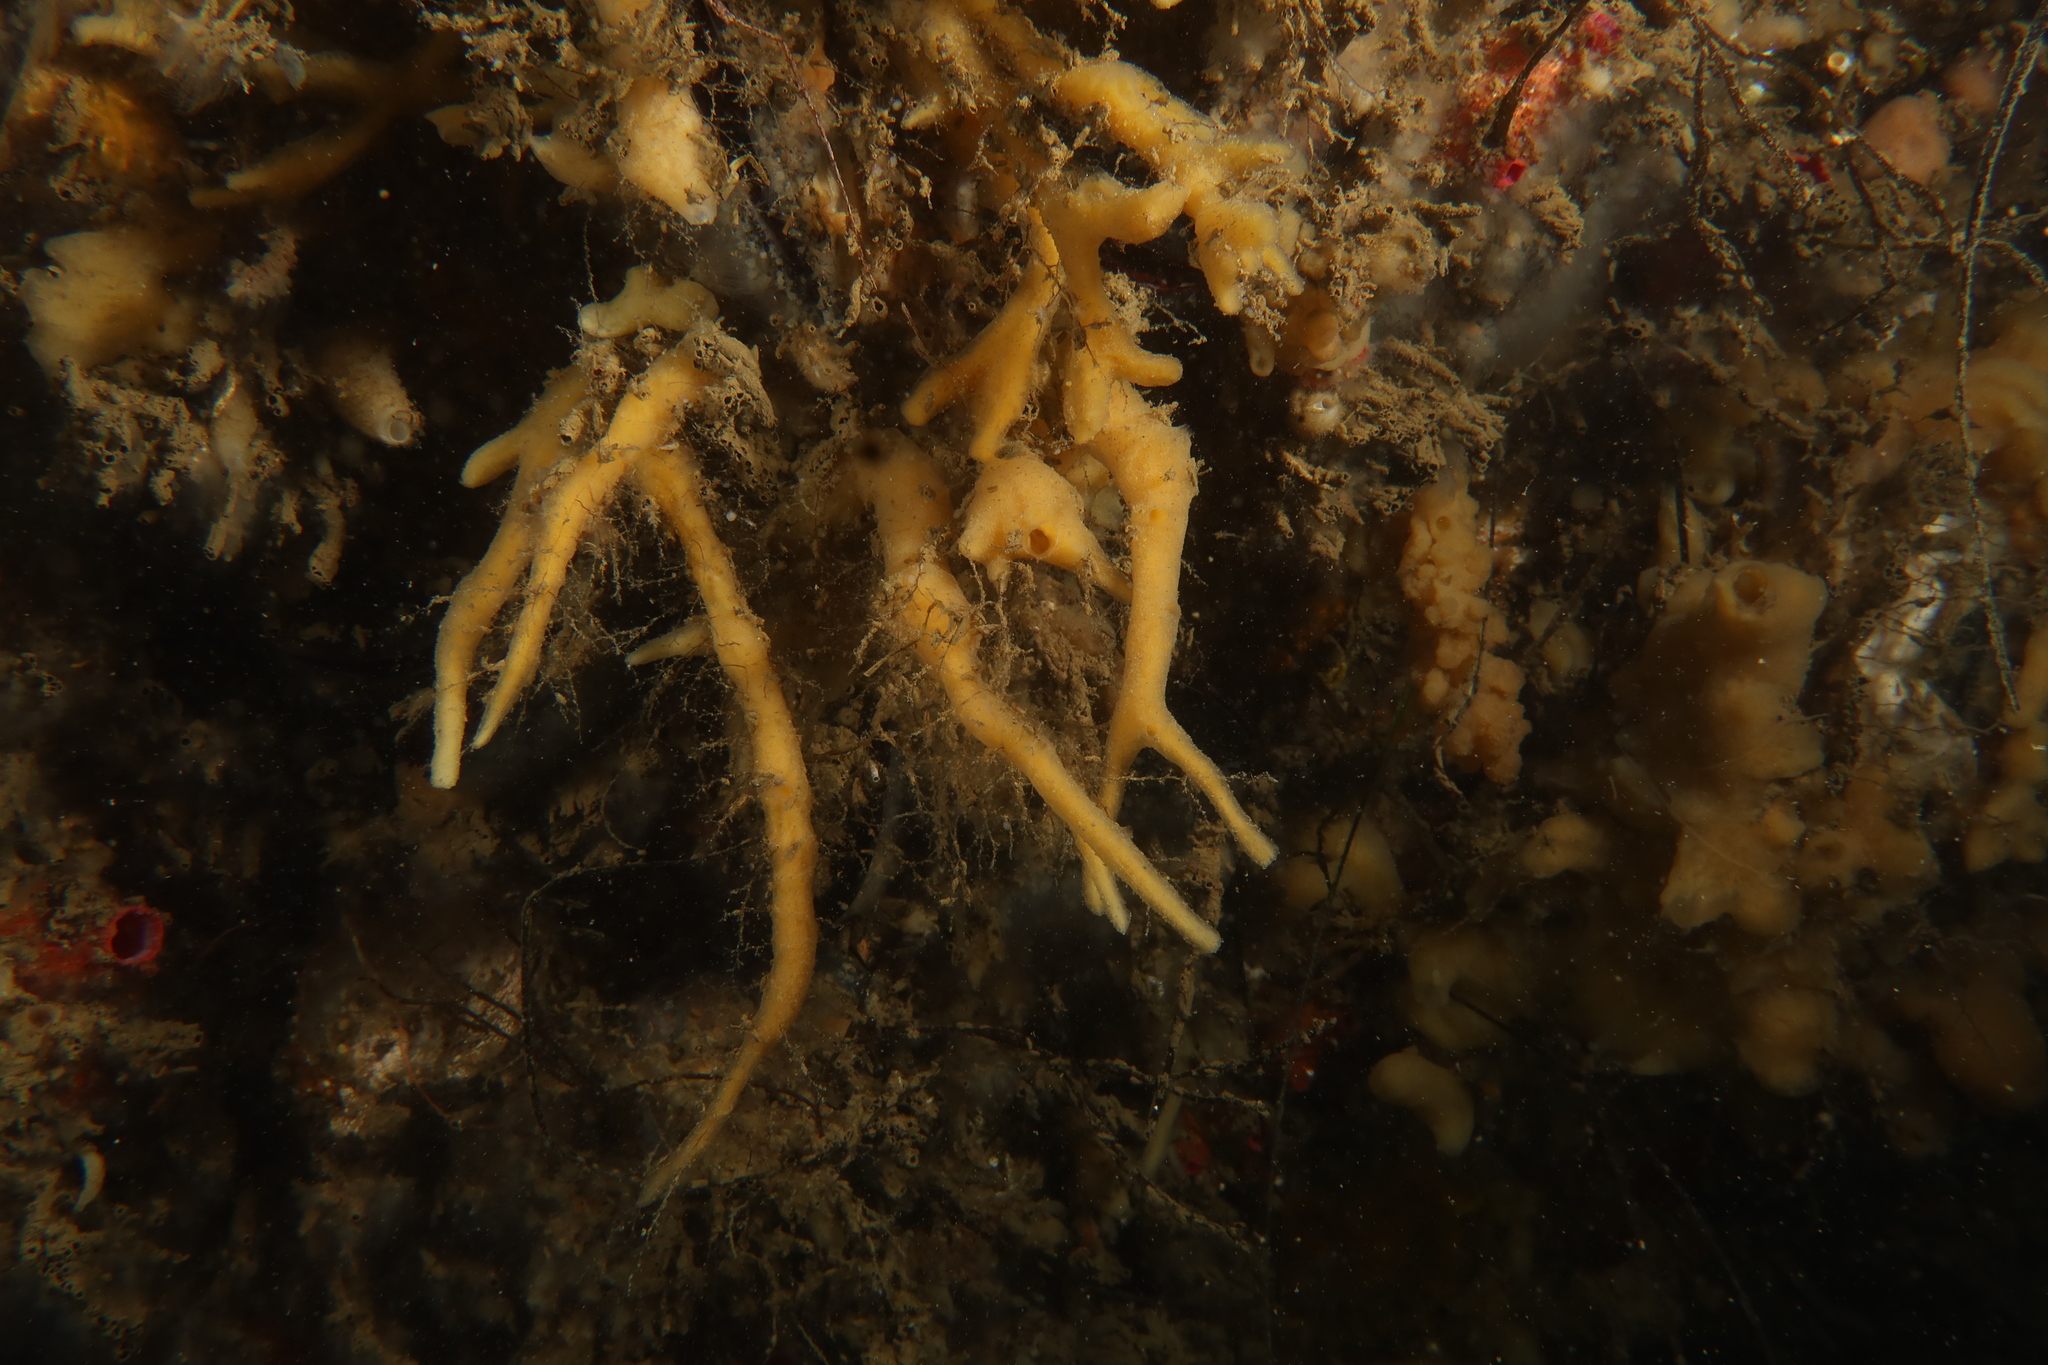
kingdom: Animalia
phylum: Porifera
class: Demospongiae
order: Suberitida
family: Halichondriidae
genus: Halichondria
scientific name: Halichondria bowerbanki
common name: Bowerbank's halichondria
